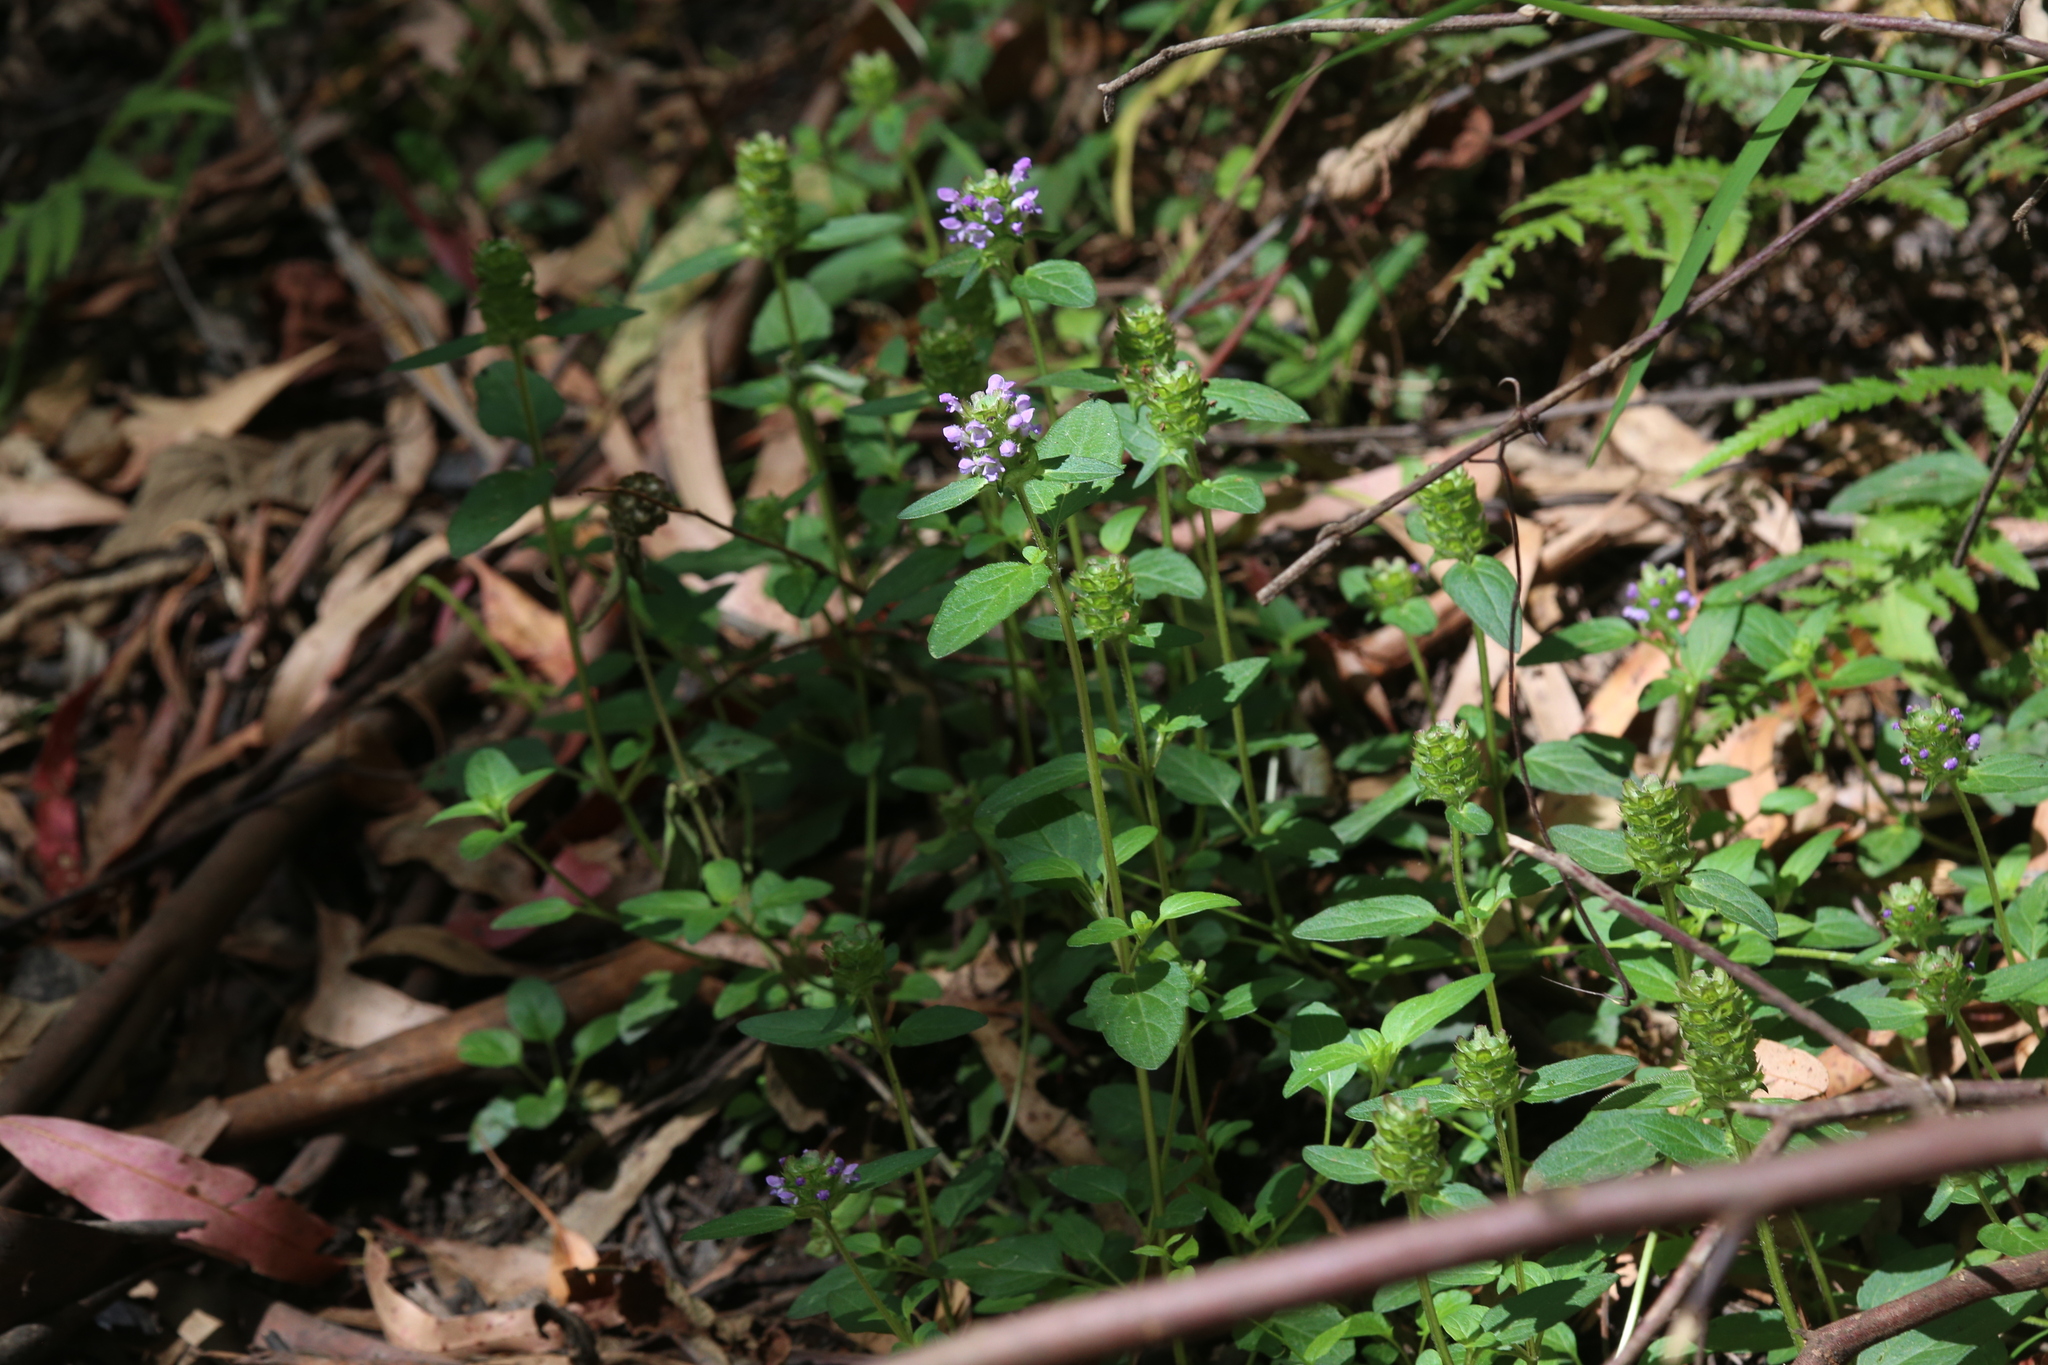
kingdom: Plantae
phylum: Tracheophyta
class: Magnoliopsida
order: Lamiales
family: Lamiaceae
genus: Prunella
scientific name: Prunella vulgaris
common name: Heal-all
